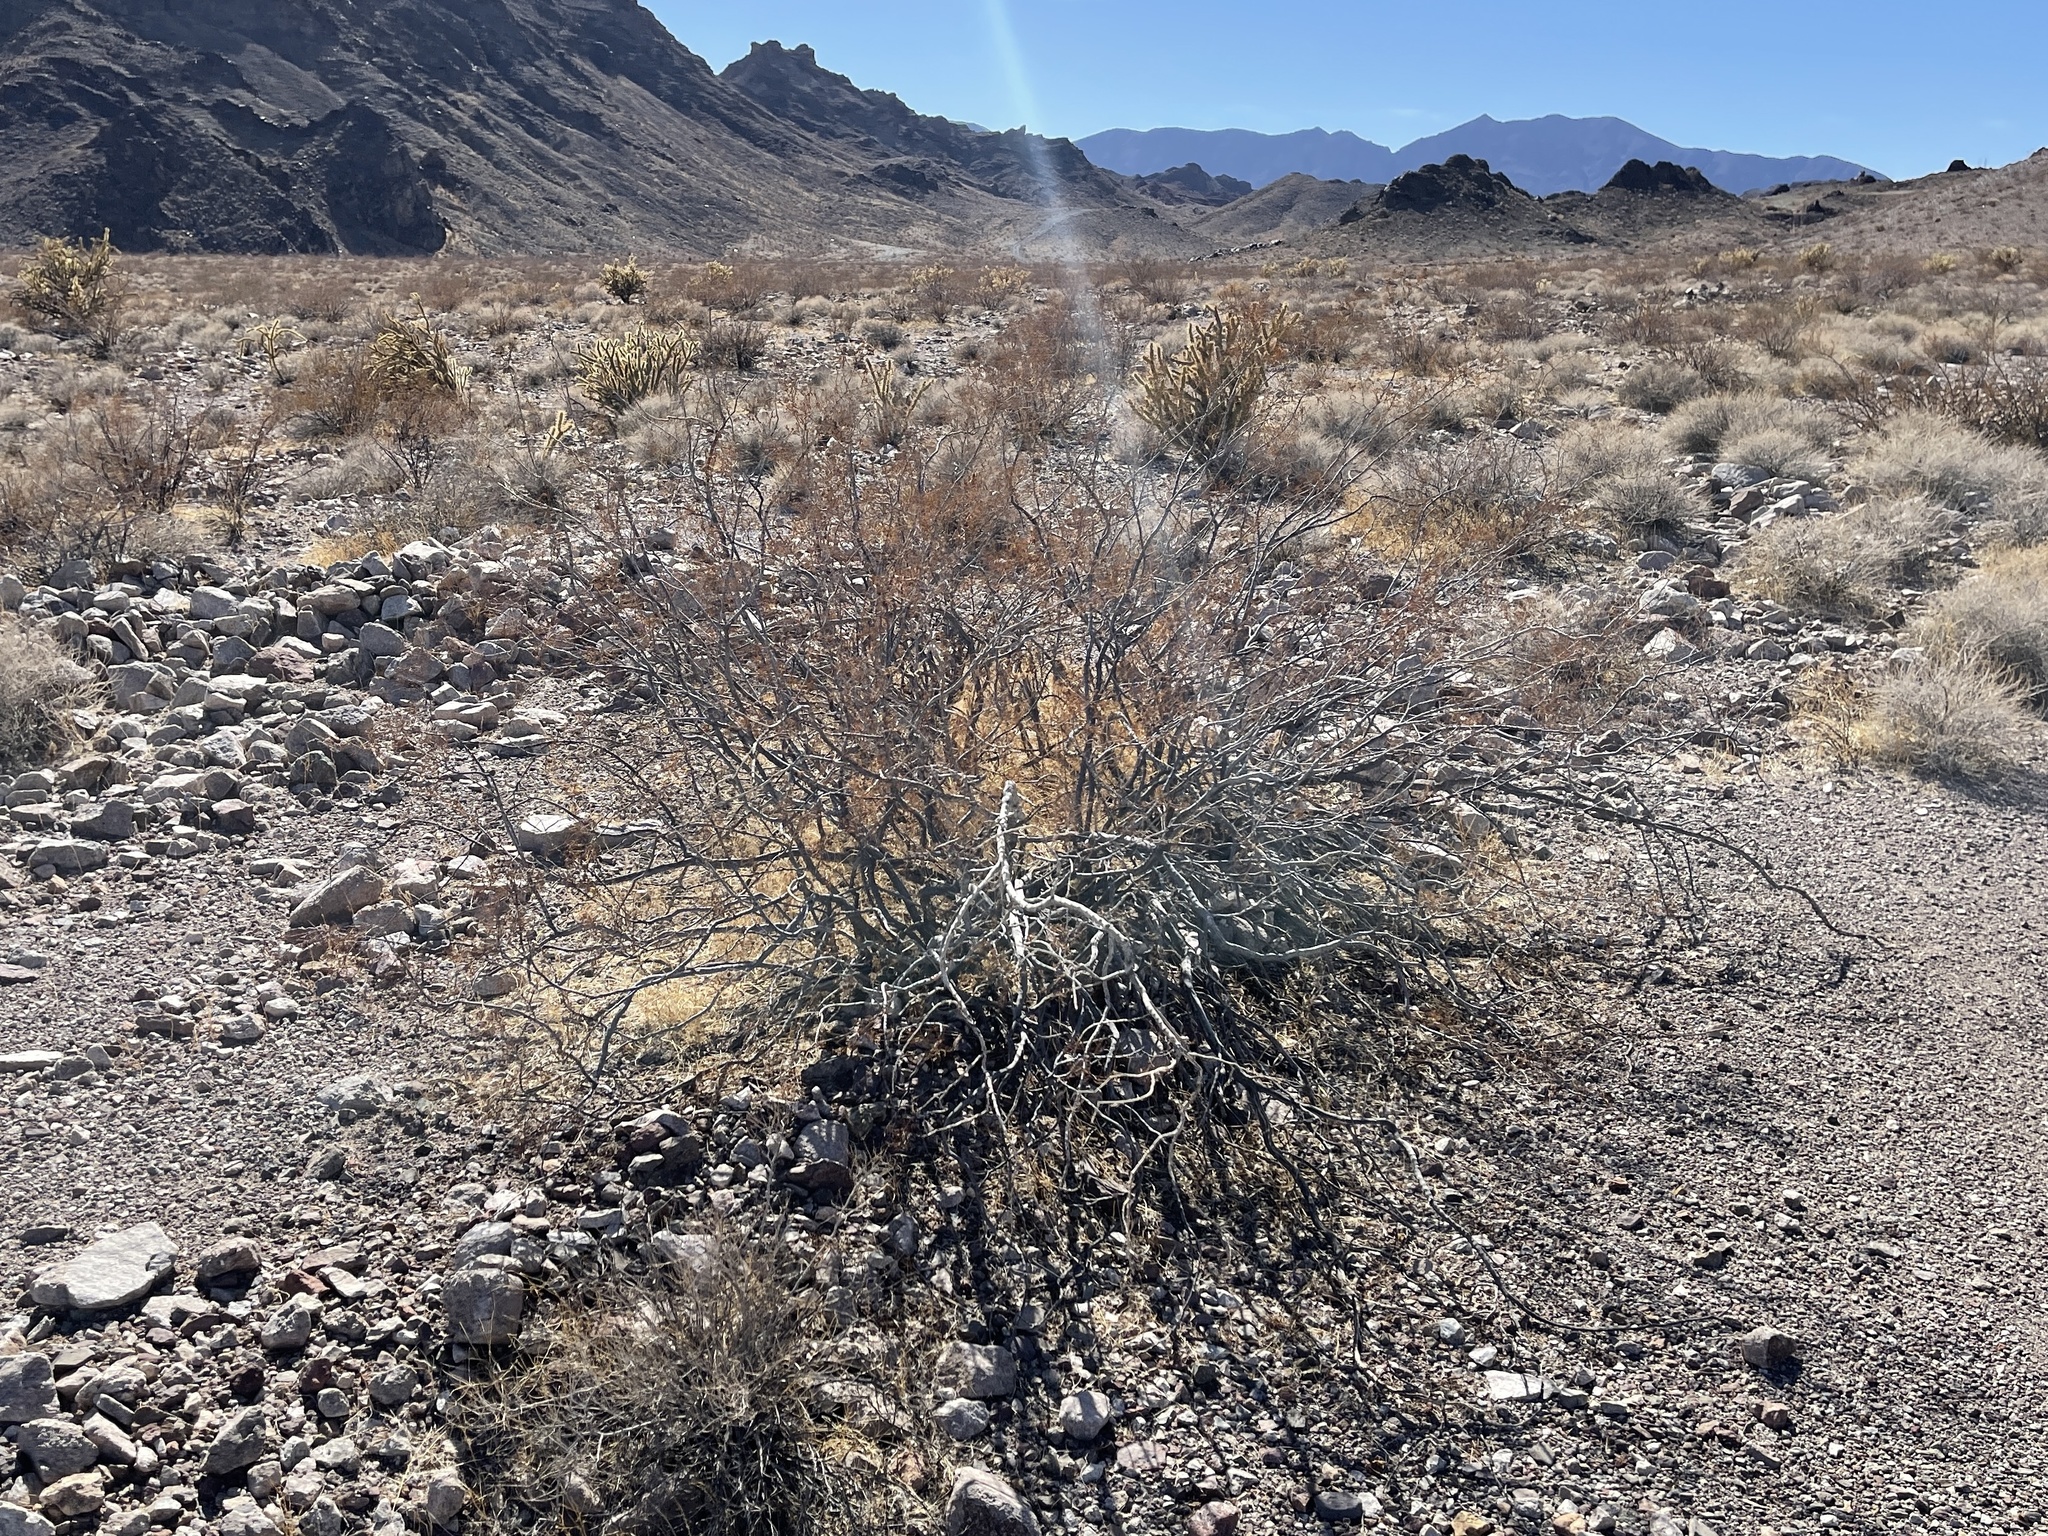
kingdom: Plantae
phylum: Tracheophyta
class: Magnoliopsida
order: Zygophyllales
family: Zygophyllaceae
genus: Larrea
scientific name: Larrea tridentata
